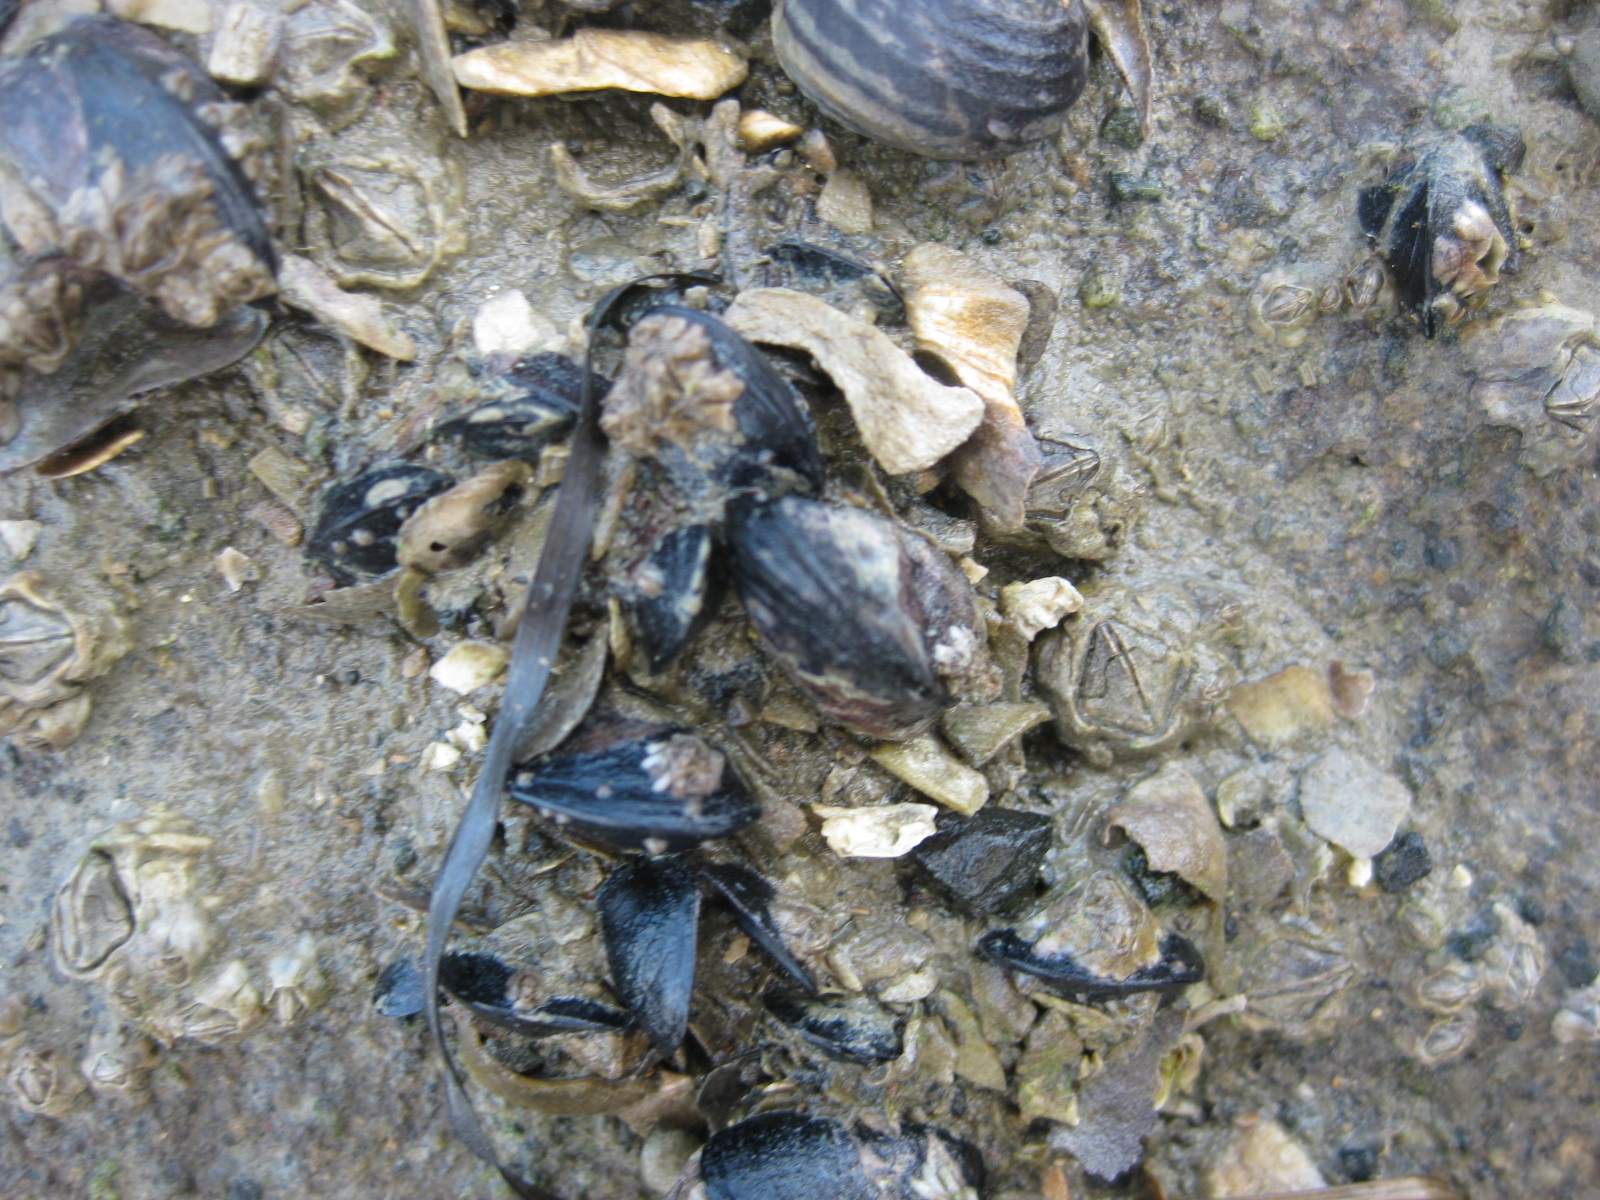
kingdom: Animalia
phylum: Mollusca
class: Bivalvia
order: Mytilida
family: Mytilidae
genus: Xenostrobus
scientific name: Xenostrobus neozelanicus
